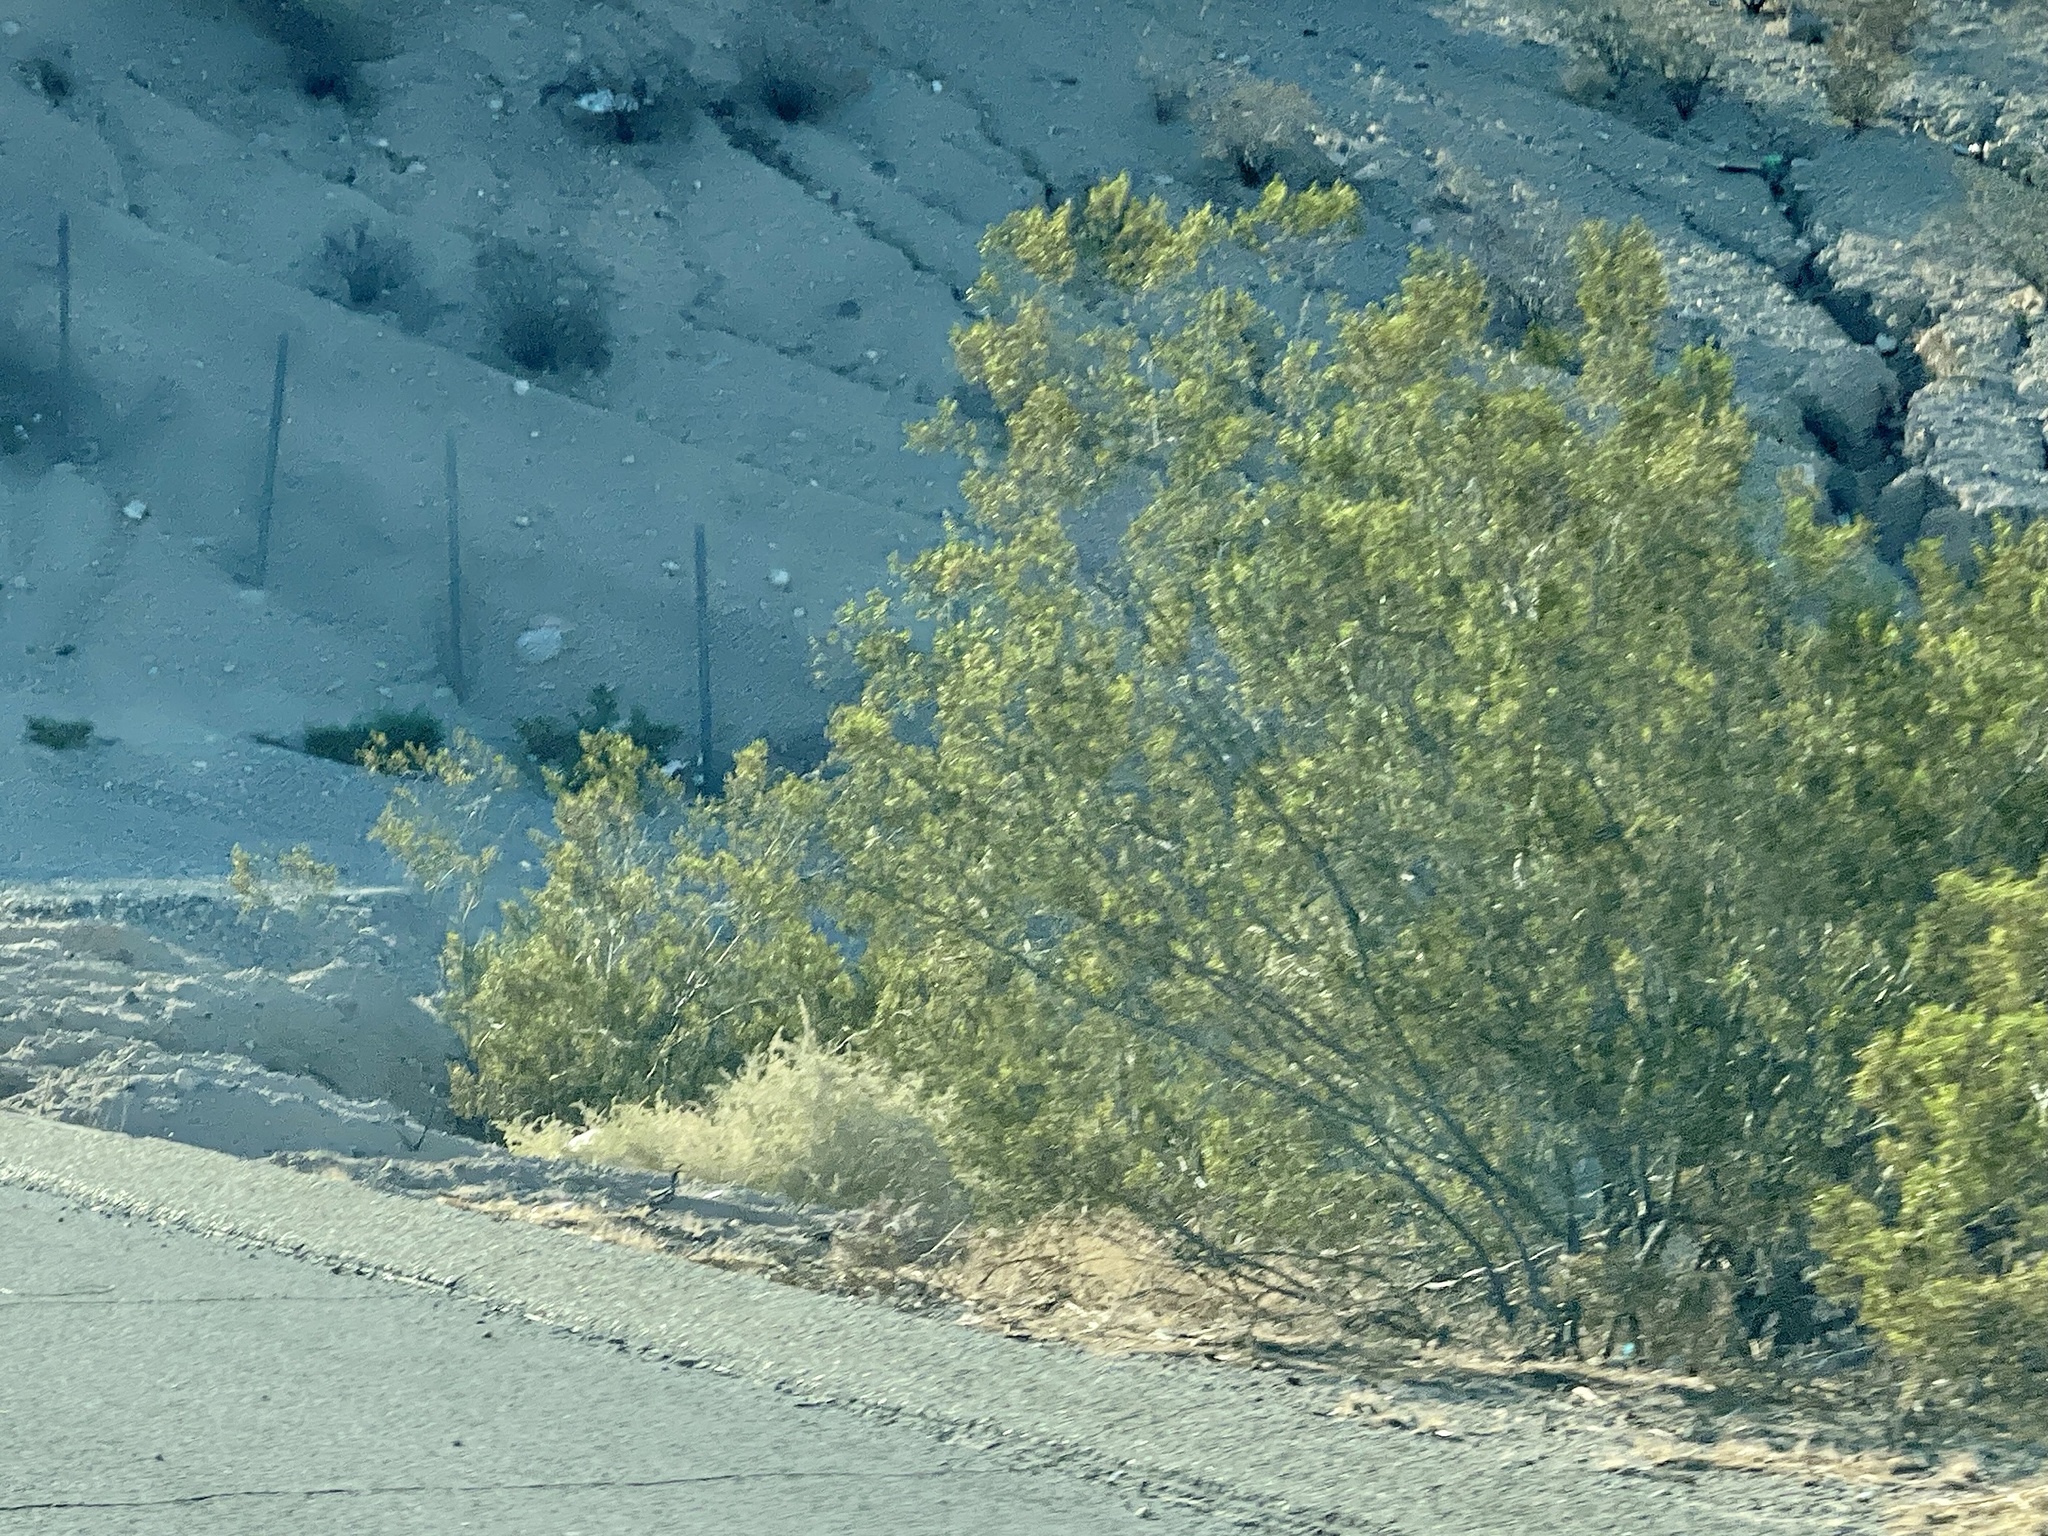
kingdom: Plantae
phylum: Tracheophyta
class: Magnoliopsida
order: Zygophyllales
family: Zygophyllaceae
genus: Larrea
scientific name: Larrea tridentata
